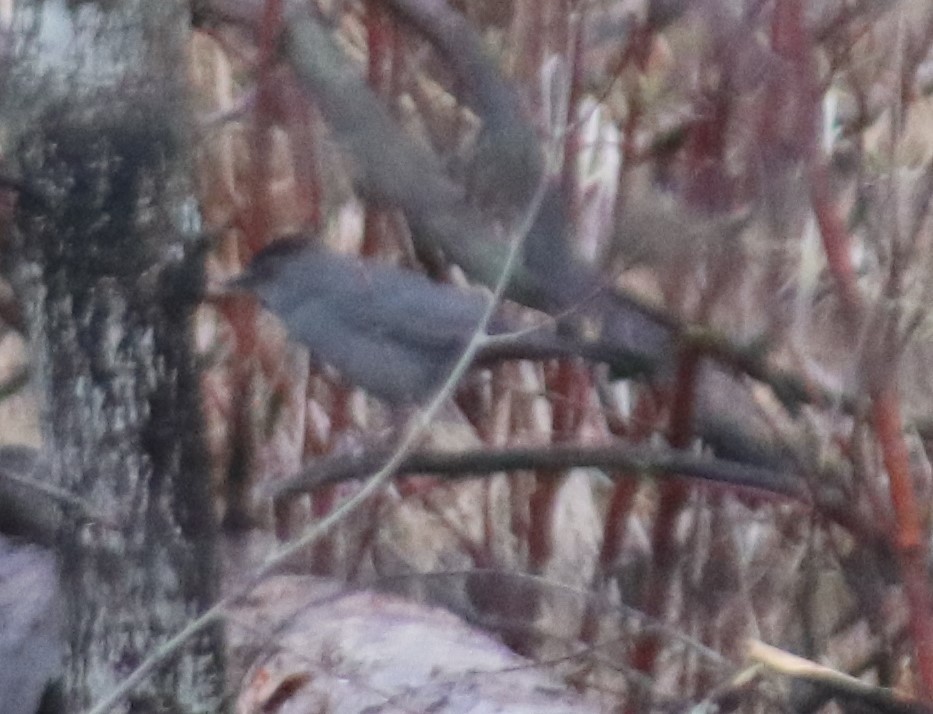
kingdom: Animalia
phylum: Chordata
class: Aves
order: Passeriformes
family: Mimidae
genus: Dumetella
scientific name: Dumetella carolinensis
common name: Gray catbird
